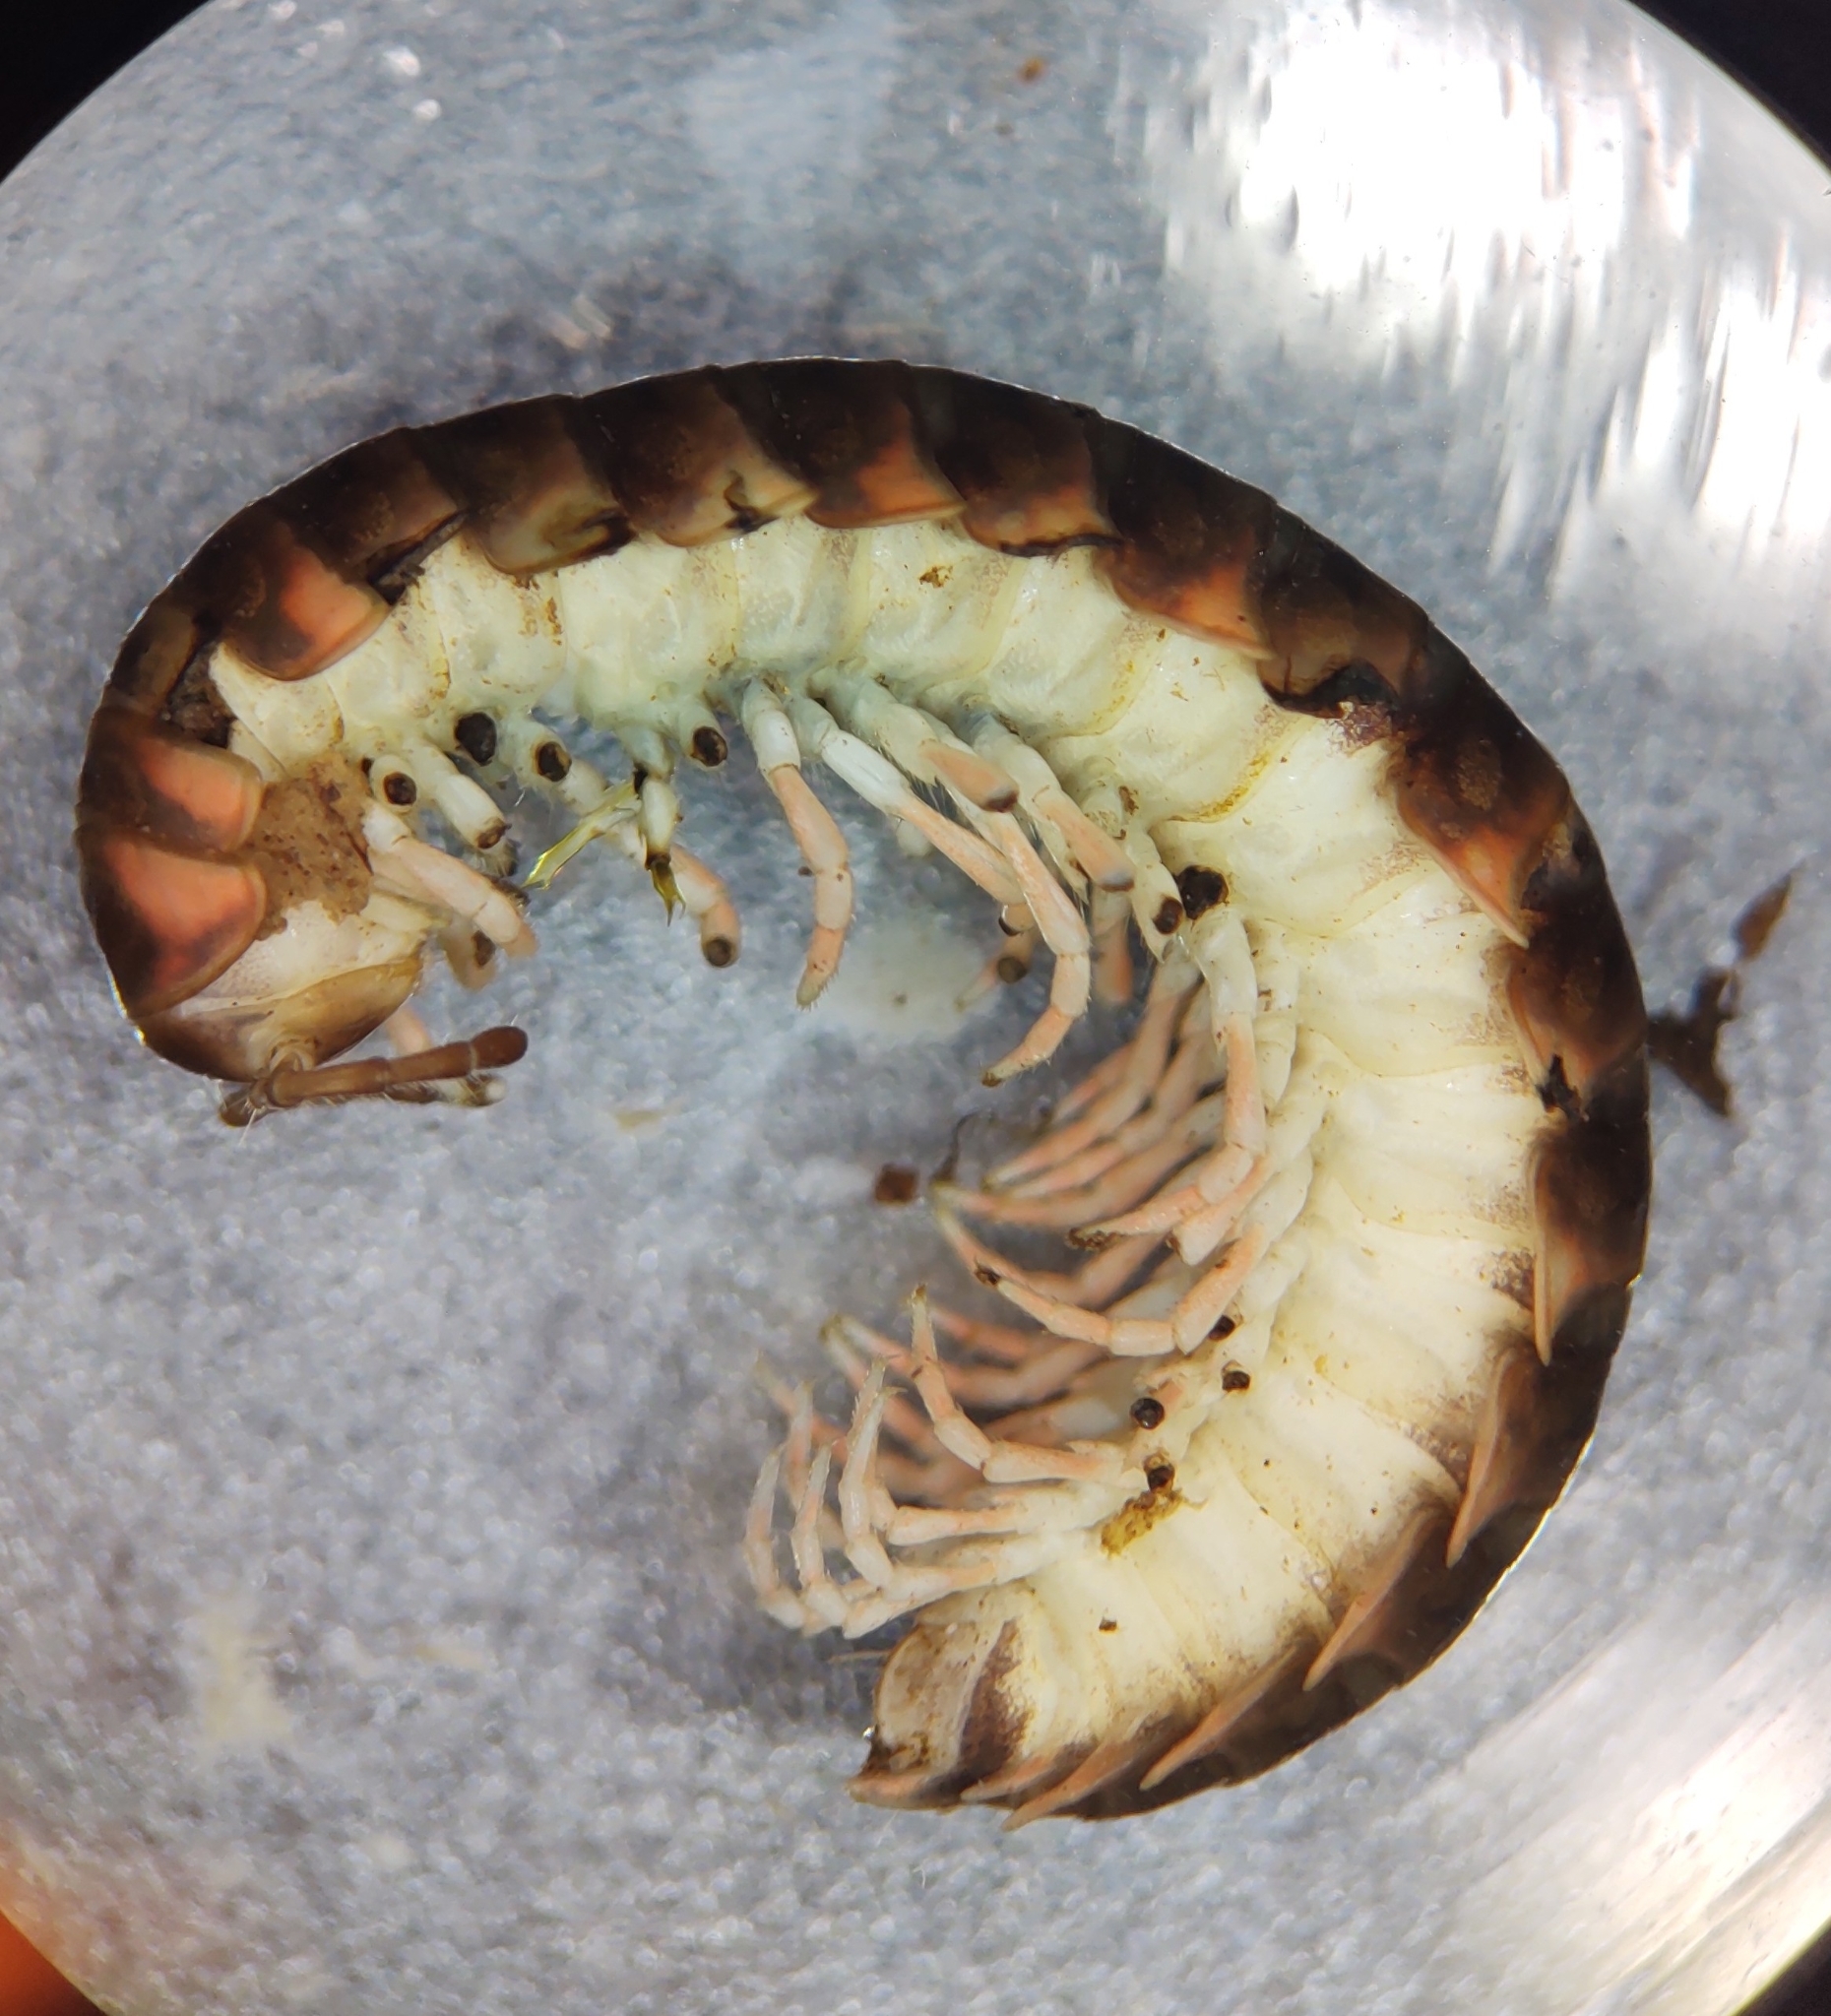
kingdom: Animalia
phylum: Arthropoda
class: Diplopoda
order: Polydesmida
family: Xystodesmidae
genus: Cherokia
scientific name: Cherokia georgiana
